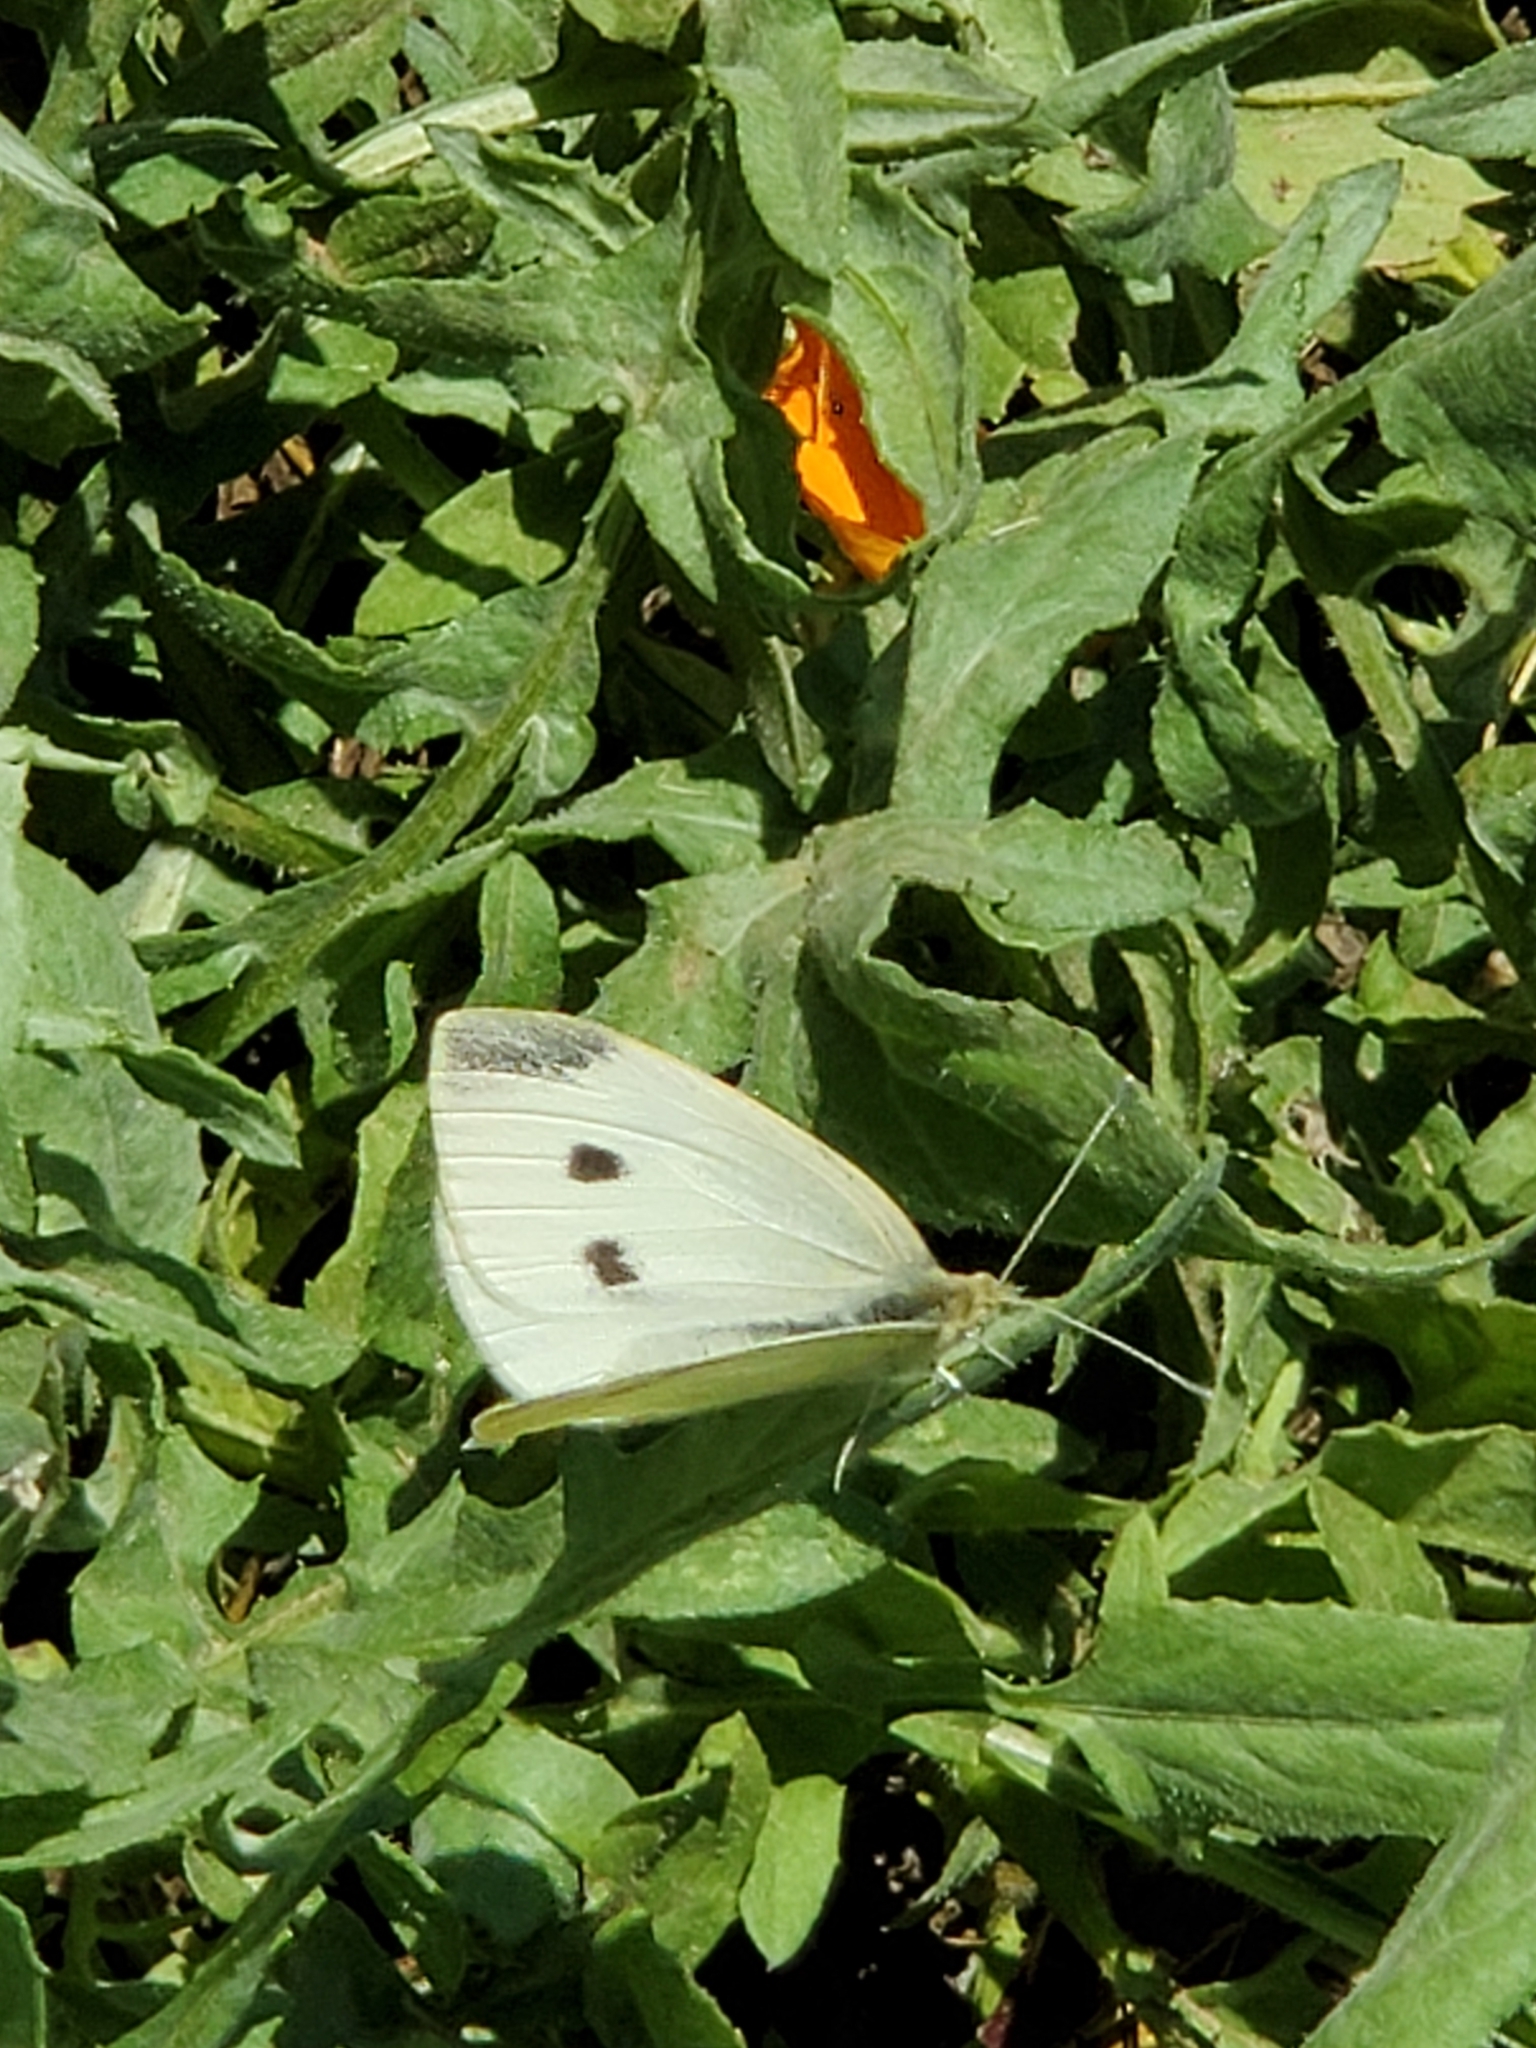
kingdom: Animalia
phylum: Arthropoda
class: Insecta
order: Lepidoptera
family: Pieridae
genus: Pieris
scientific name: Pieris rapae
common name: Small white
